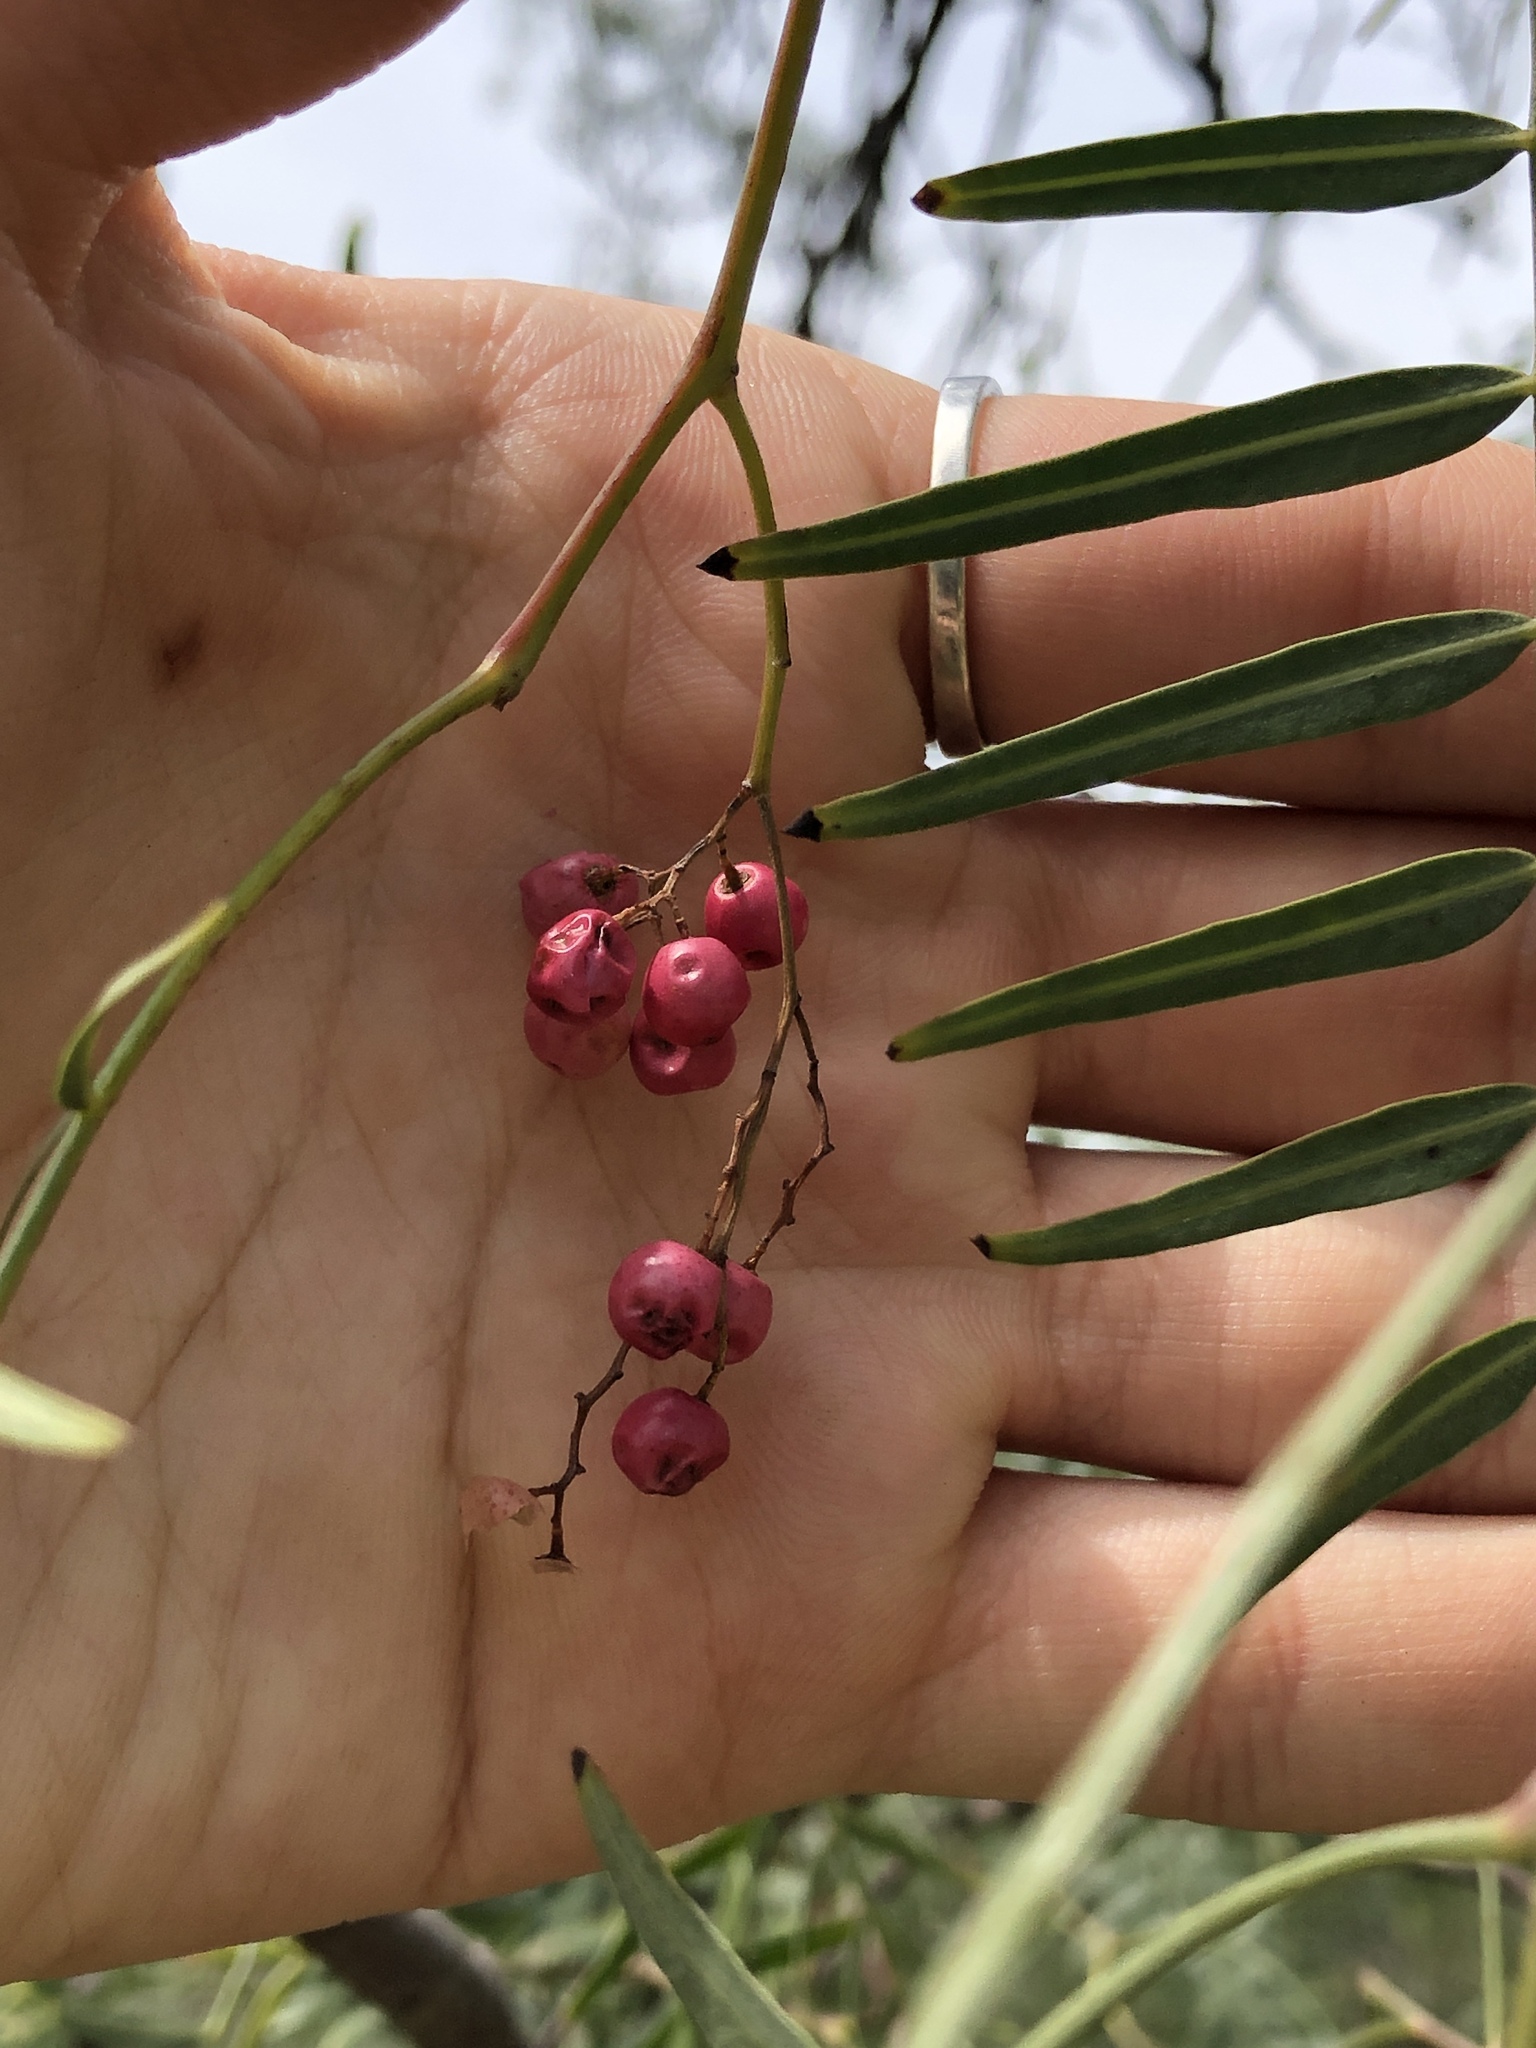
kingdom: Plantae
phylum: Tracheophyta
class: Magnoliopsida
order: Sapindales
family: Anacardiaceae
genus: Schinus
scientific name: Schinus molle
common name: Peruvian peppertree
